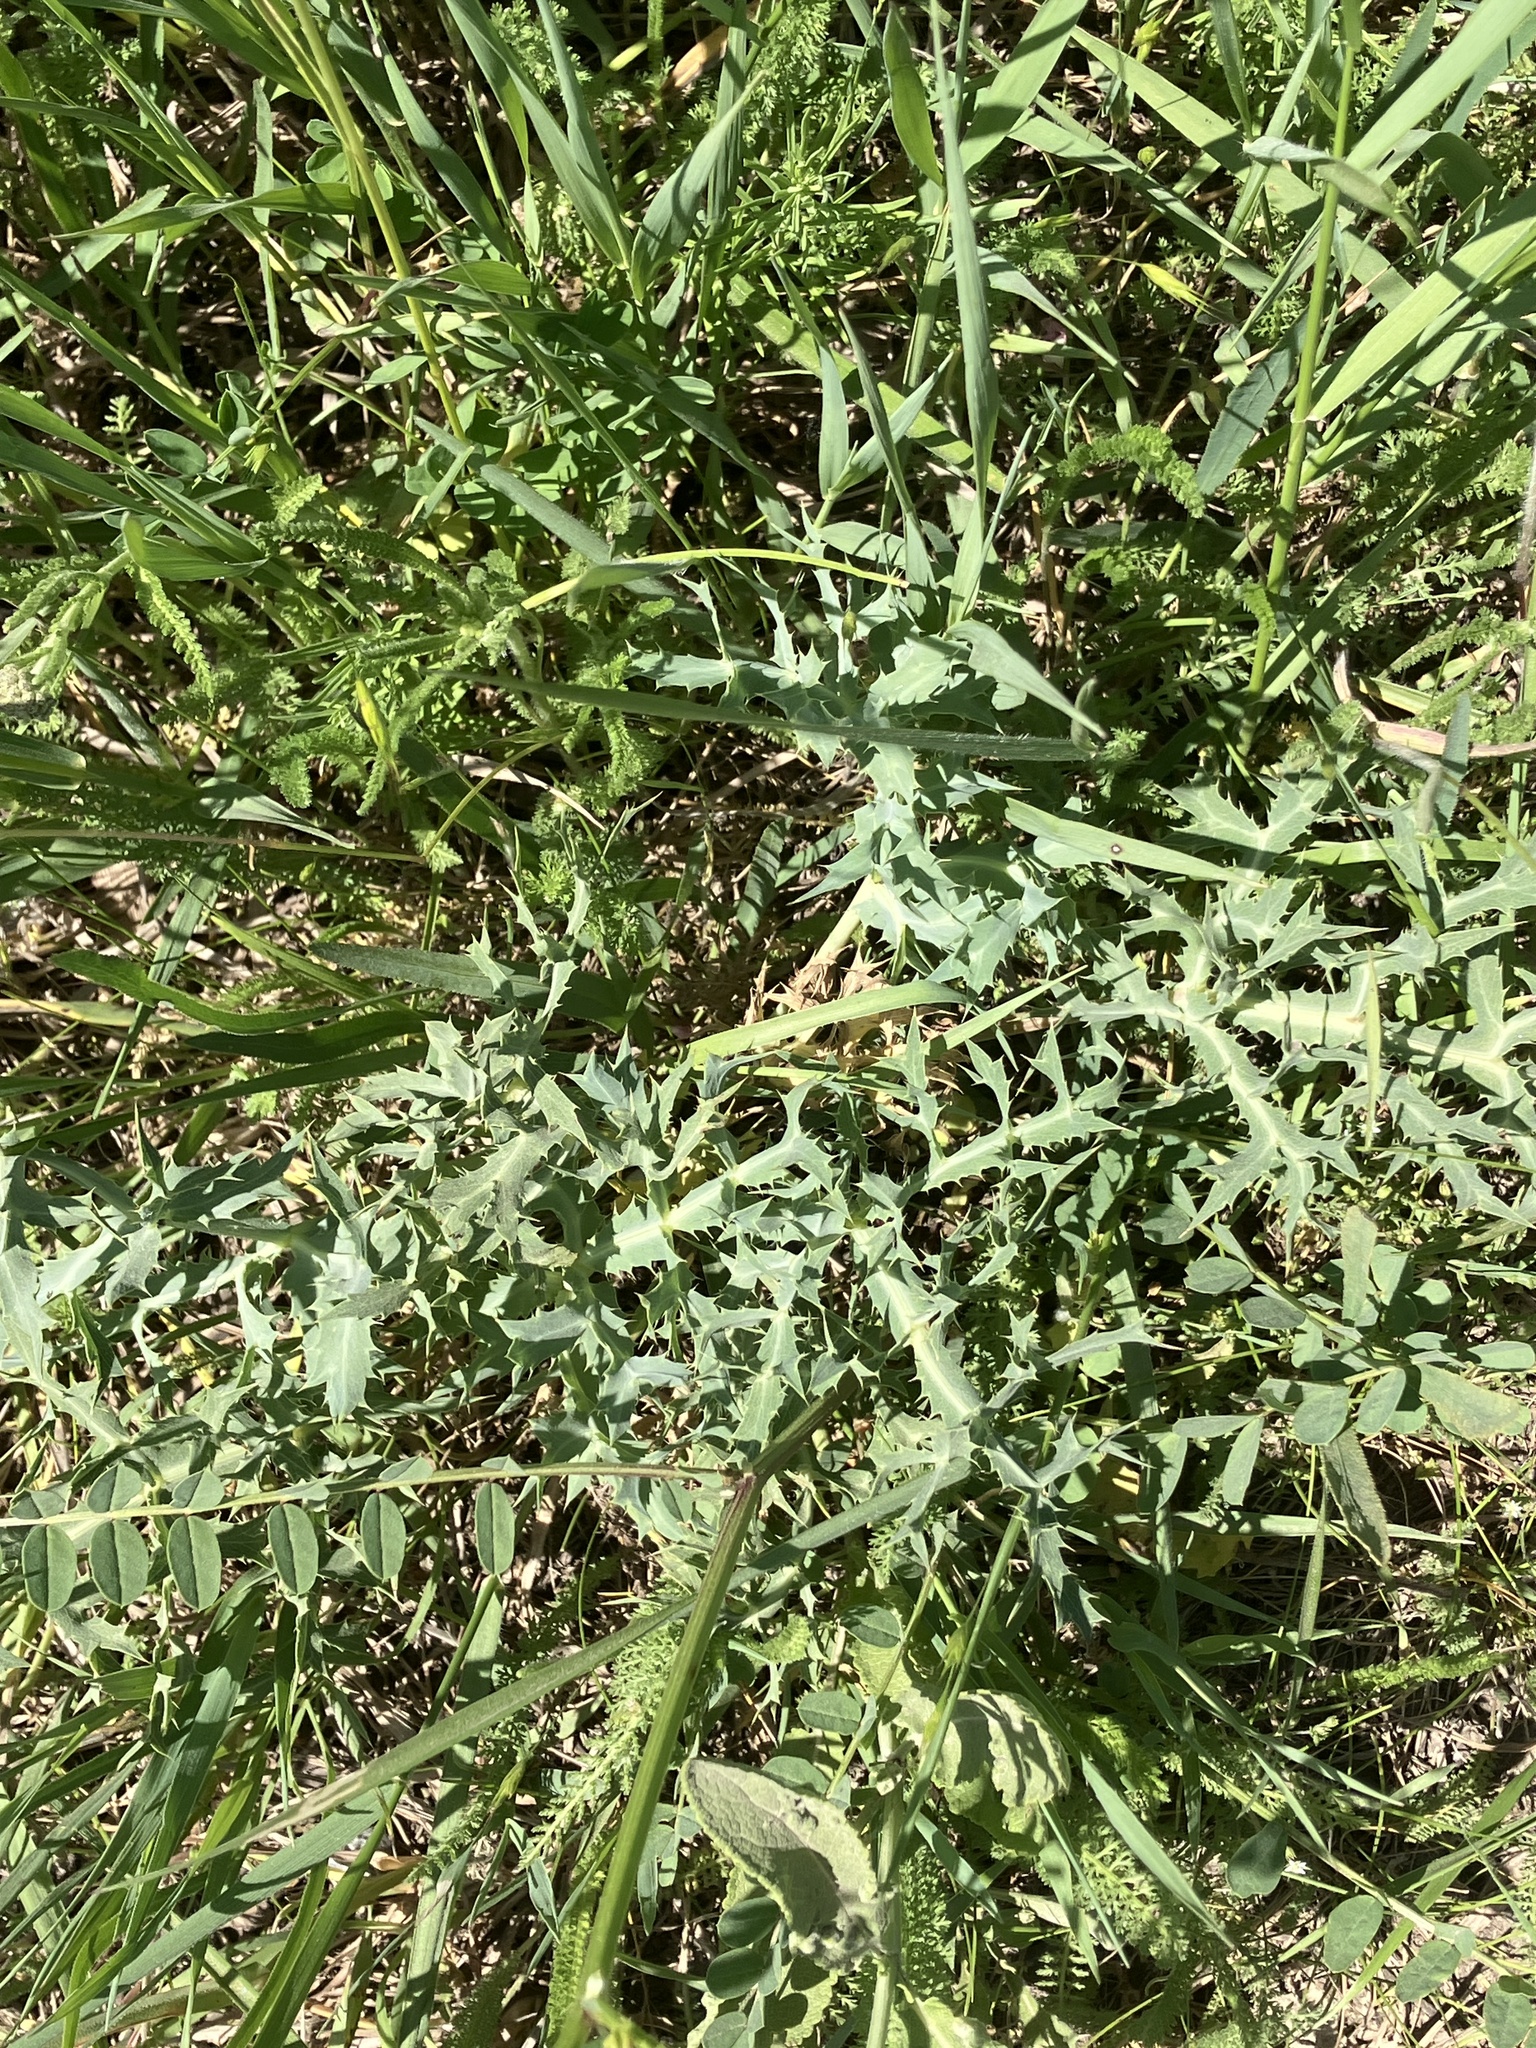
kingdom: Plantae
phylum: Tracheophyta
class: Magnoliopsida
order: Apiales
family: Apiaceae
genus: Eryngium
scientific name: Eryngium campestre
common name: Field eryngo
